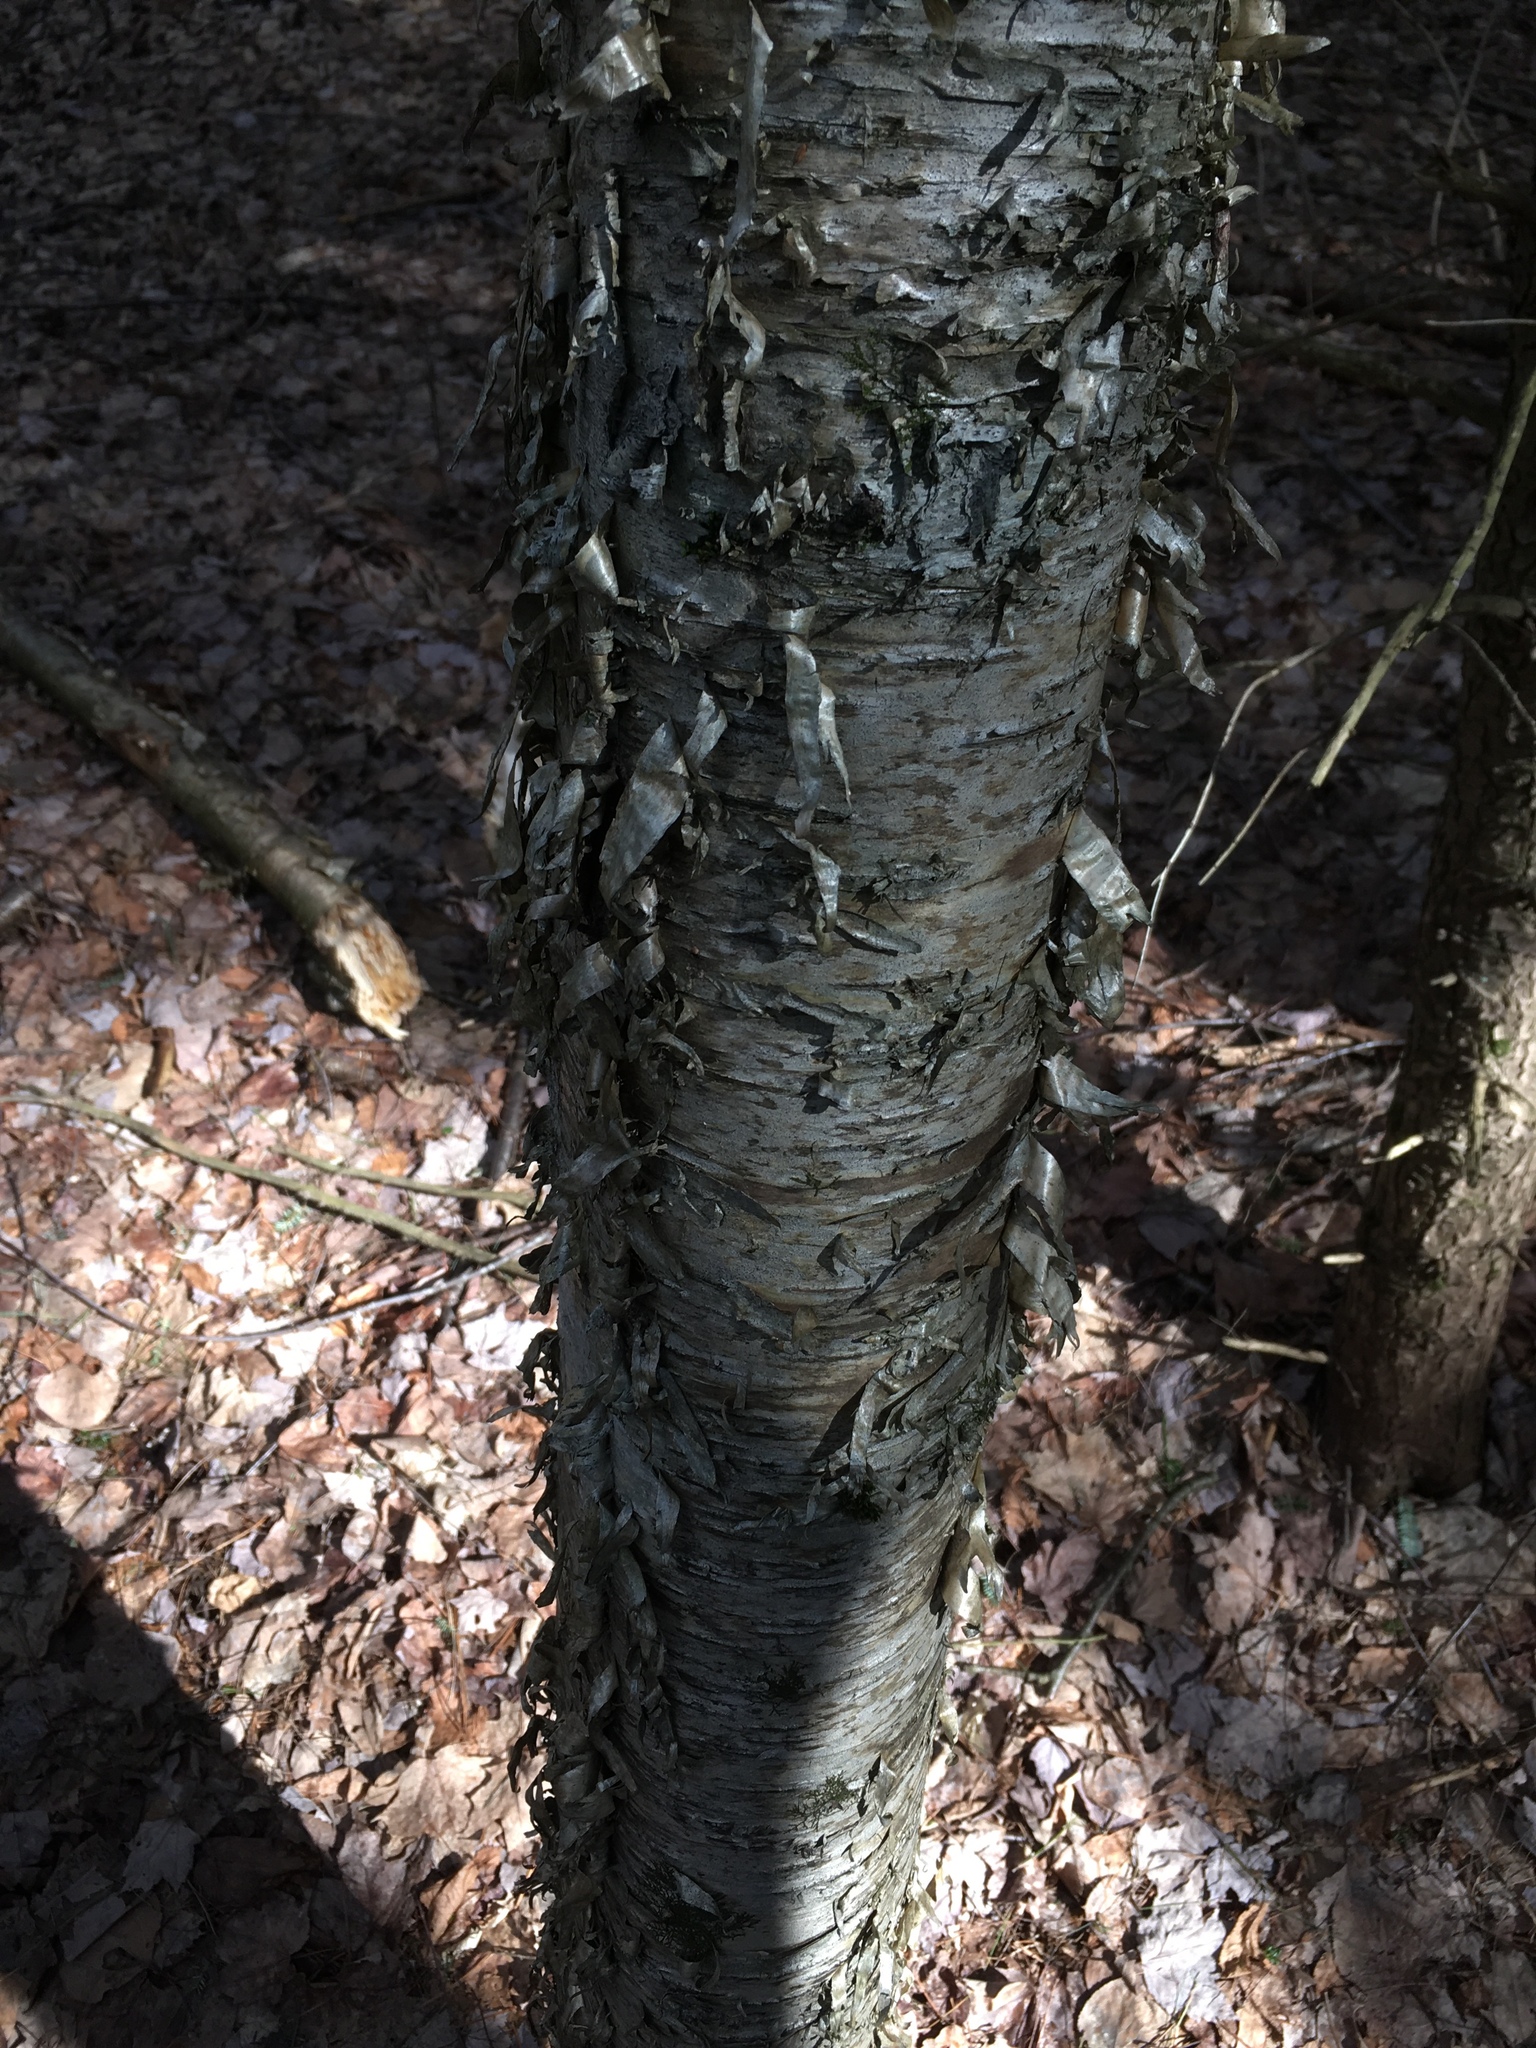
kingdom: Plantae
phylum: Tracheophyta
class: Magnoliopsida
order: Fagales
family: Betulaceae
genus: Betula
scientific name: Betula alleghaniensis
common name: Yellow birch
